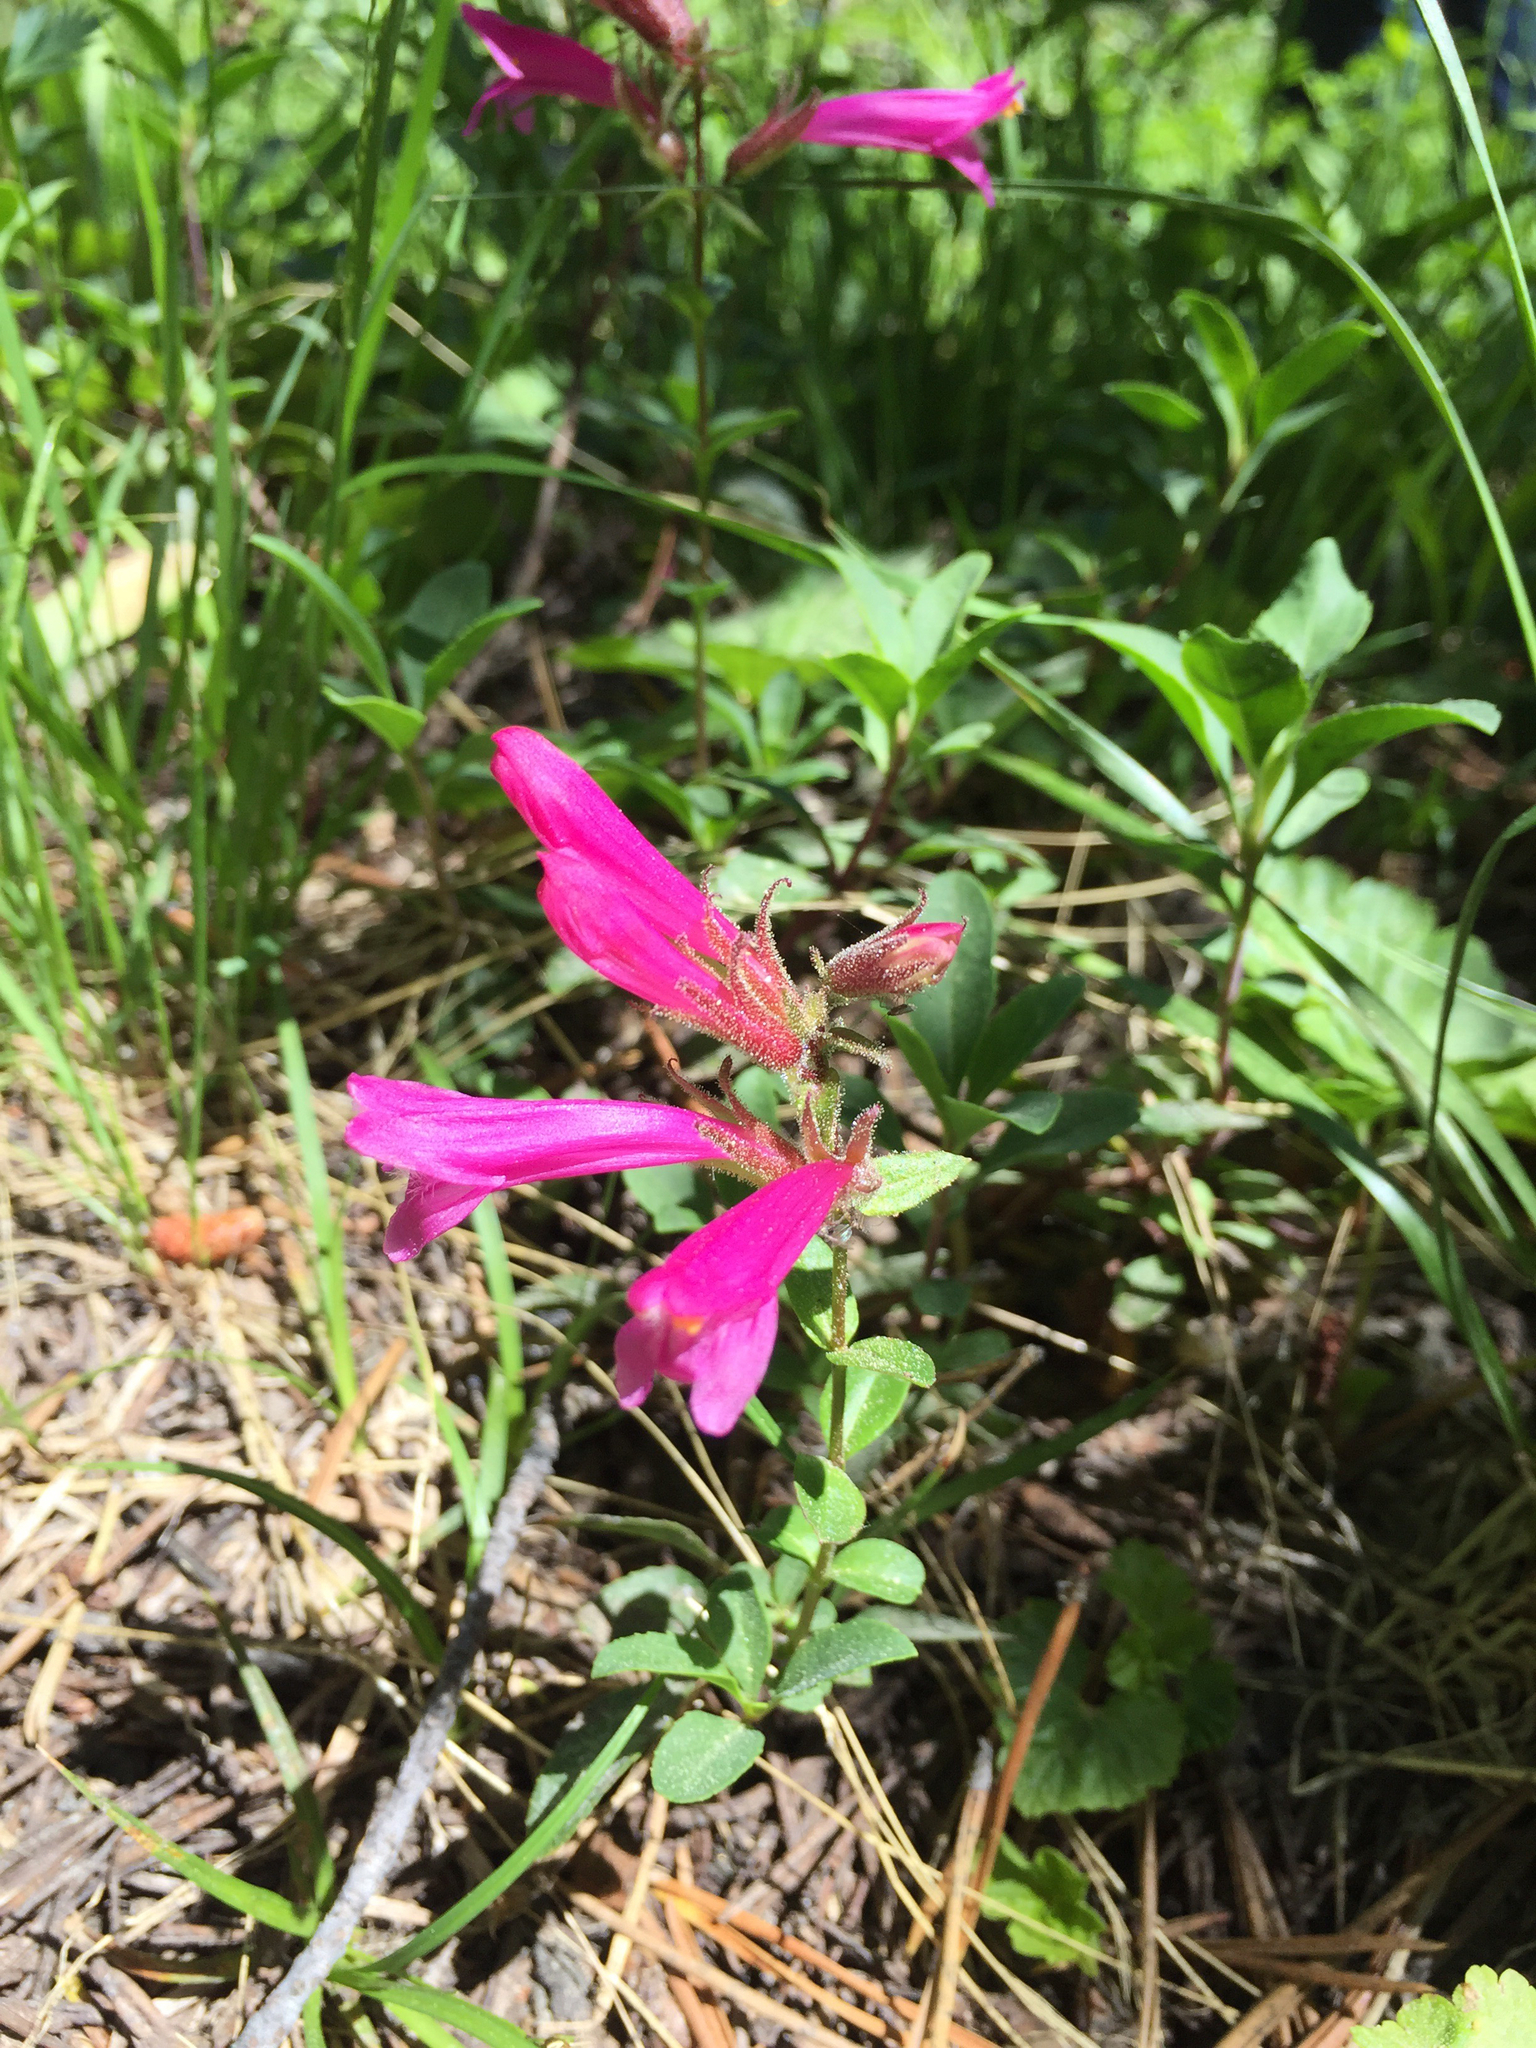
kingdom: Plantae
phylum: Tracheophyta
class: Magnoliopsida
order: Lamiales
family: Plantaginaceae
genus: Penstemon
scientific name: Penstemon newberryi
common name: Mountain-pride
